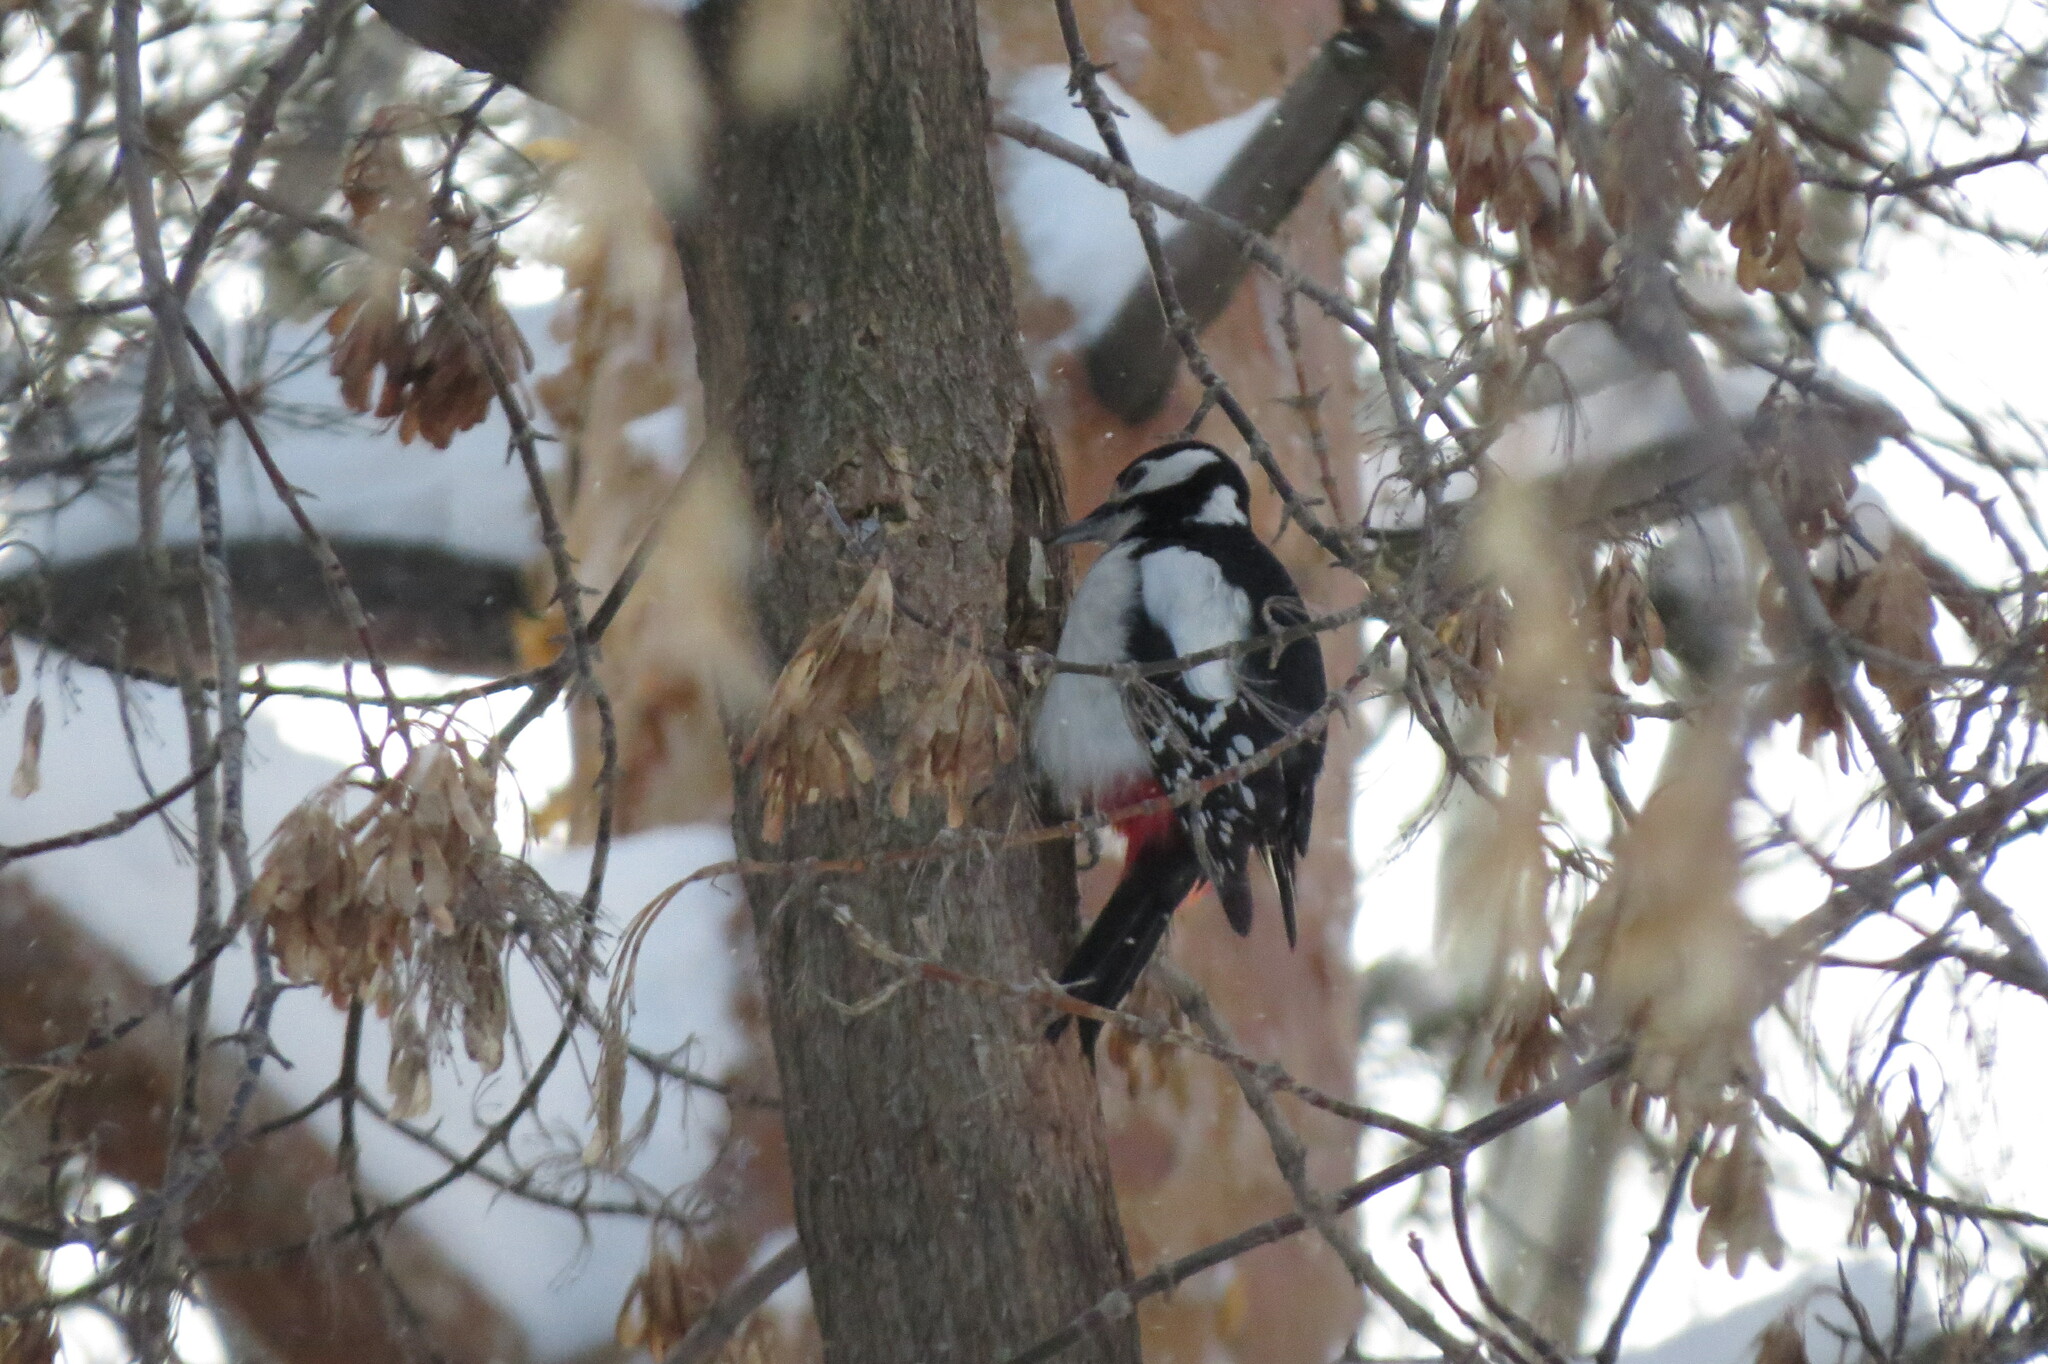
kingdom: Animalia
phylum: Chordata
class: Aves
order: Piciformes
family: Picidae
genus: Dendrocopos
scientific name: Dendrocopos major
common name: Great spotted woodpecker
